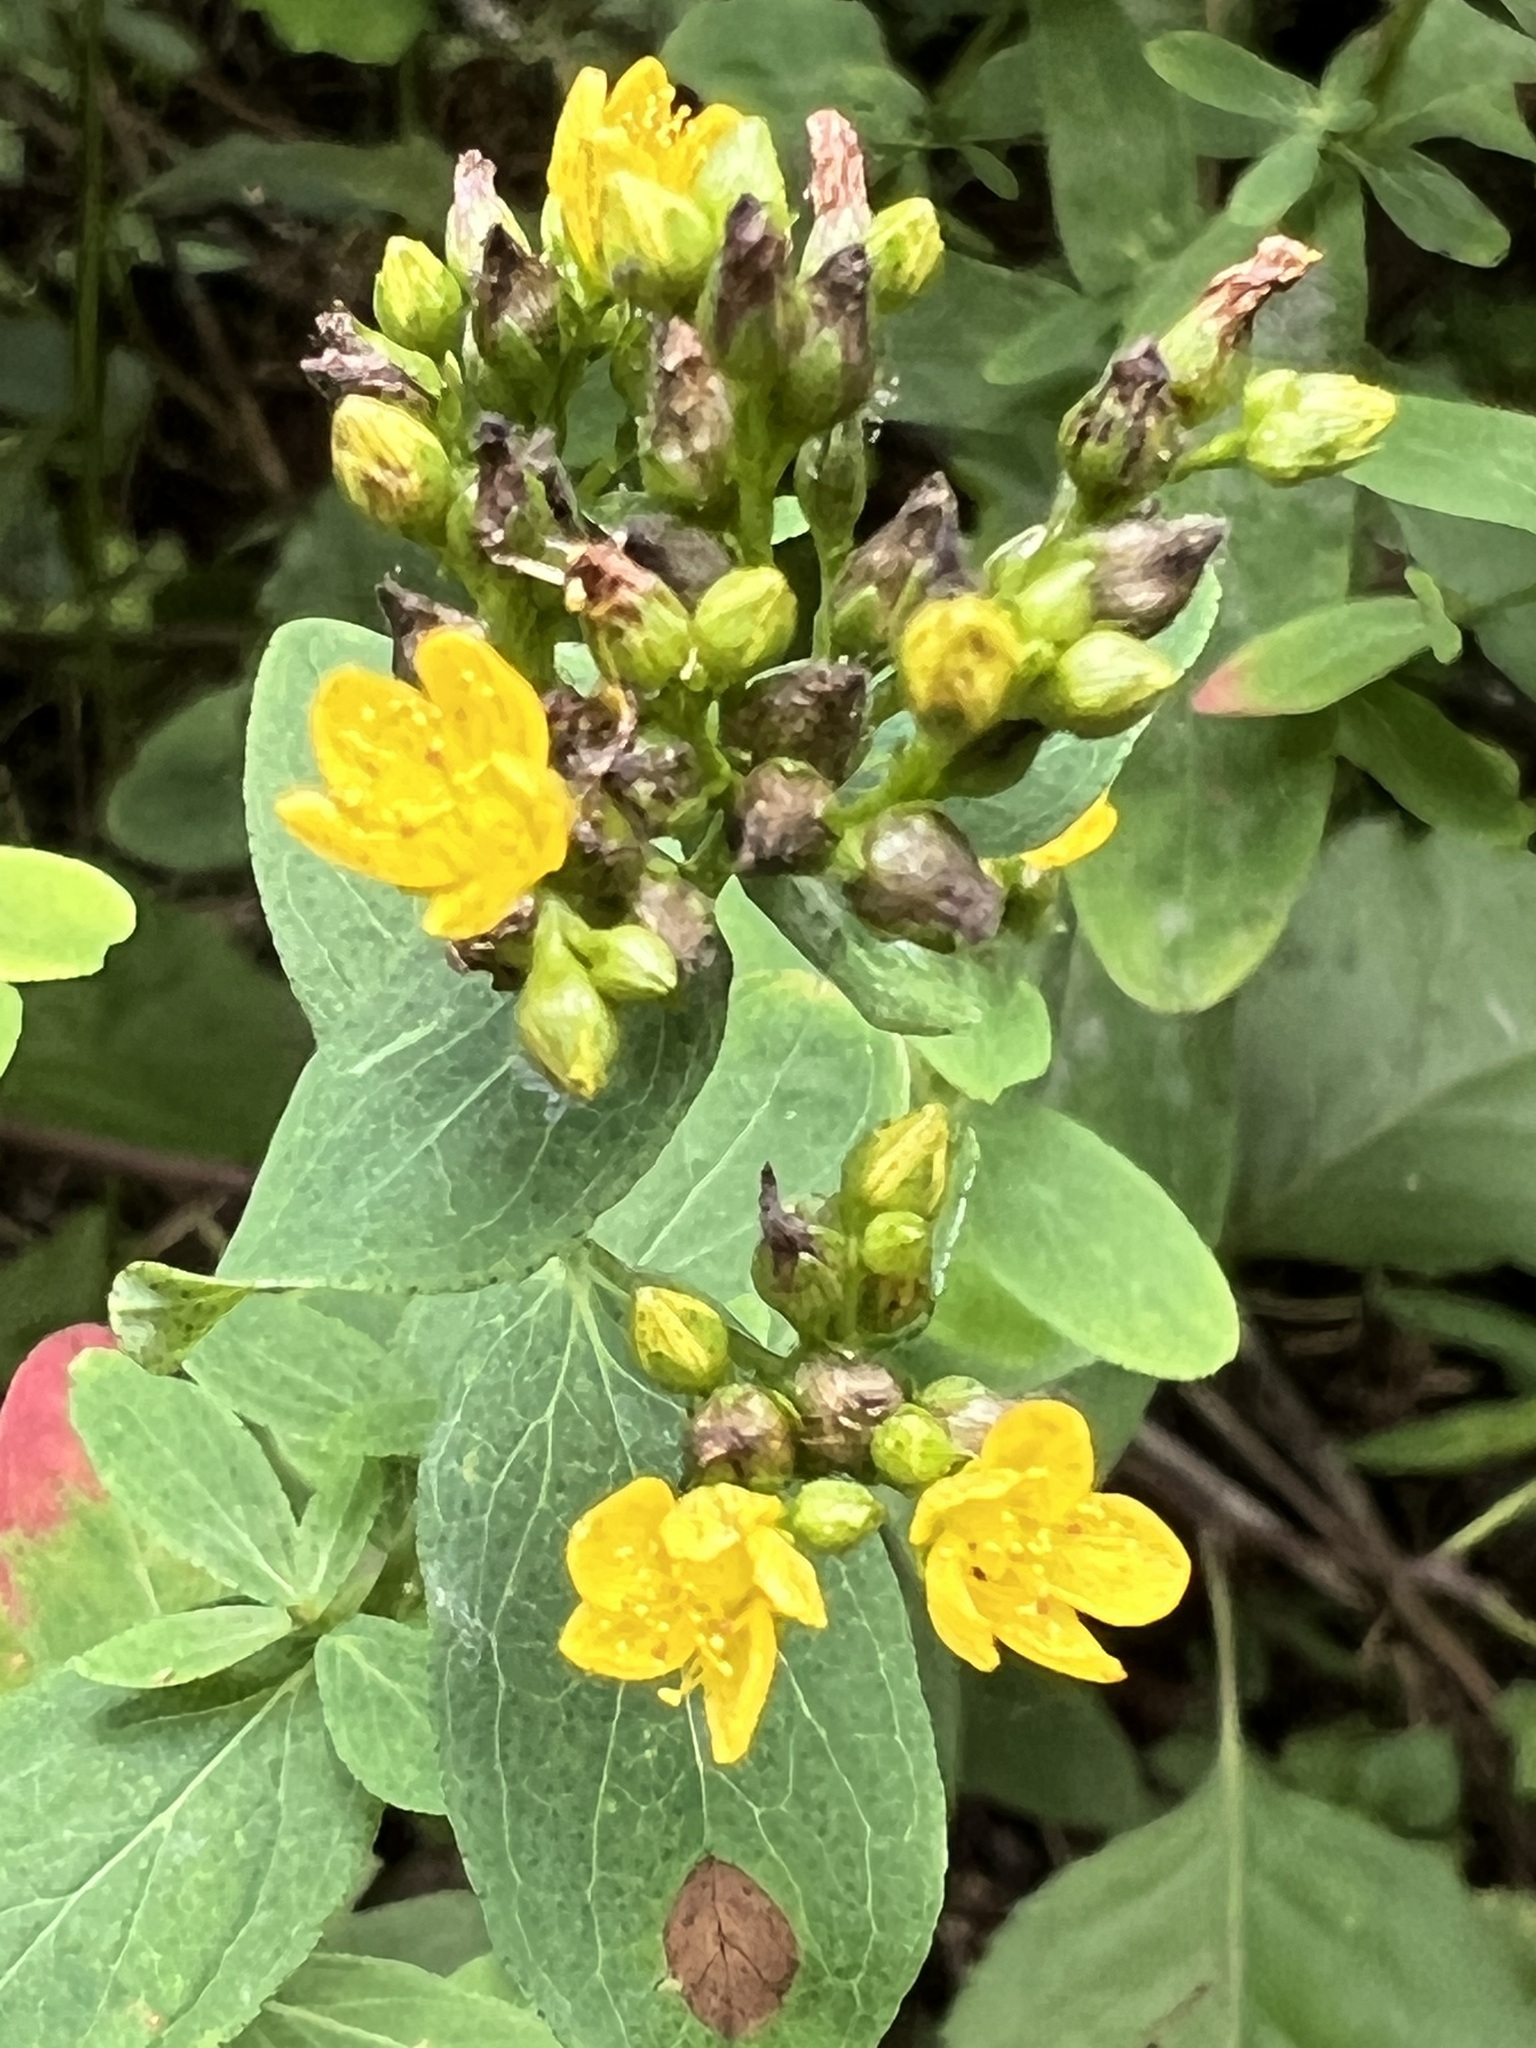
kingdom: Plantae
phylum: Tracheophyta
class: Magnoliopsida
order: Malpighiales
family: Hypericaceae
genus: Hypericum
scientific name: Hypericum punctatum
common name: Spotted st. john's-wort
